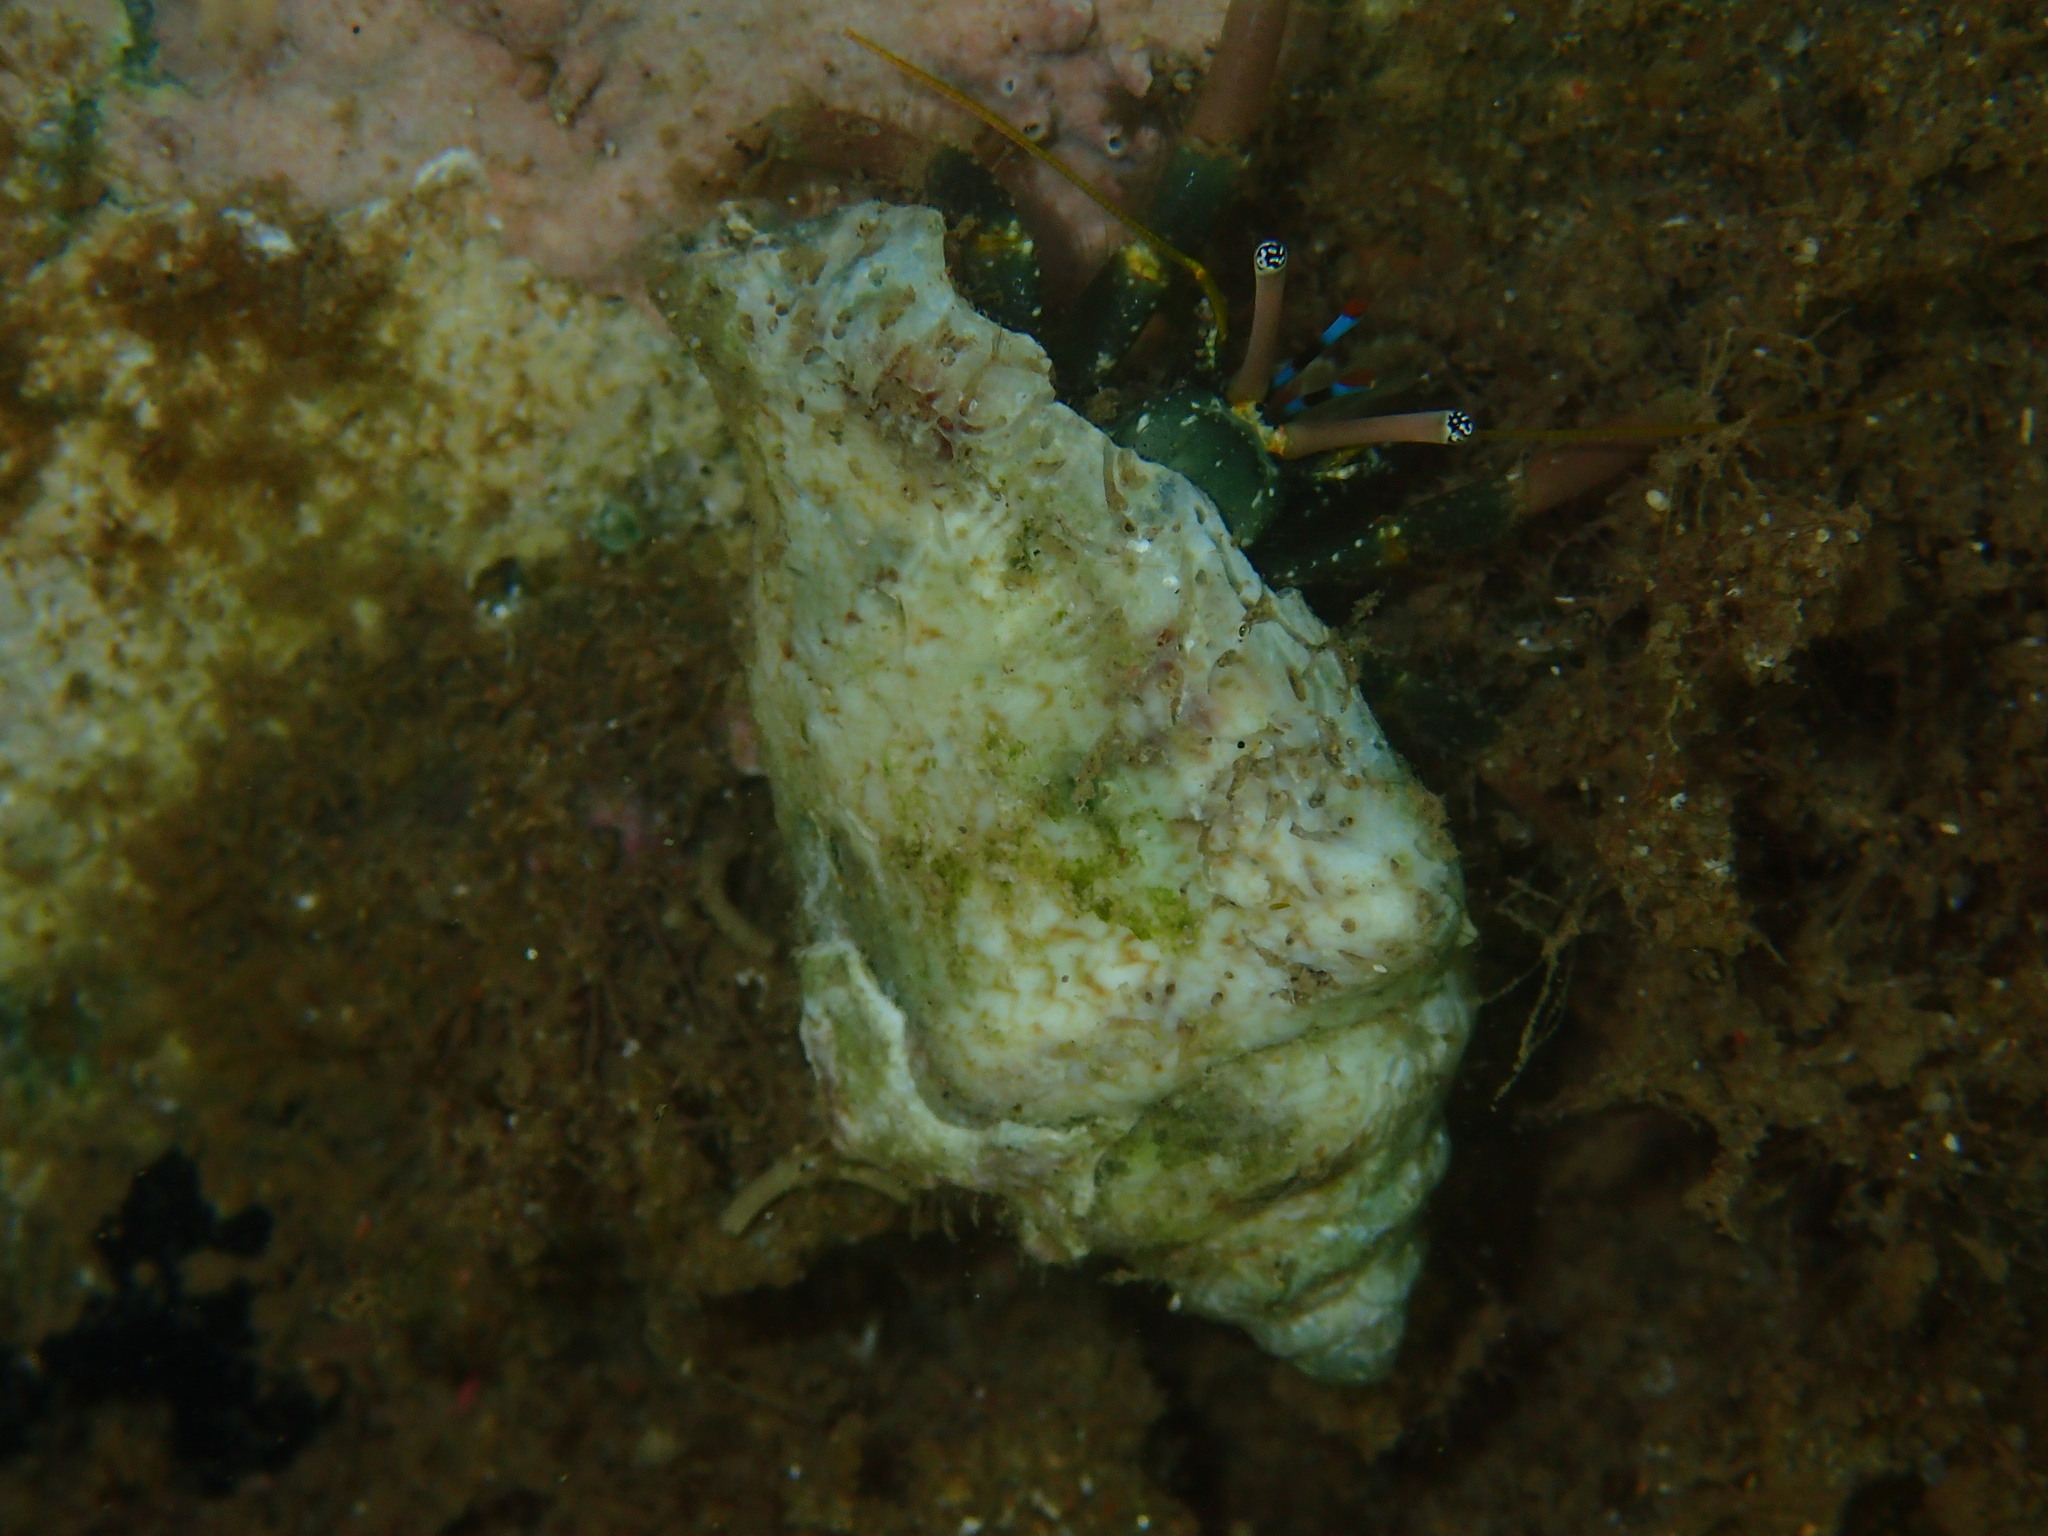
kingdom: Animalia
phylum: Arthropoda
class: Malacostraca
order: Decapoda
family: Diogenidae
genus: Calcinus
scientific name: Calcinus latens
